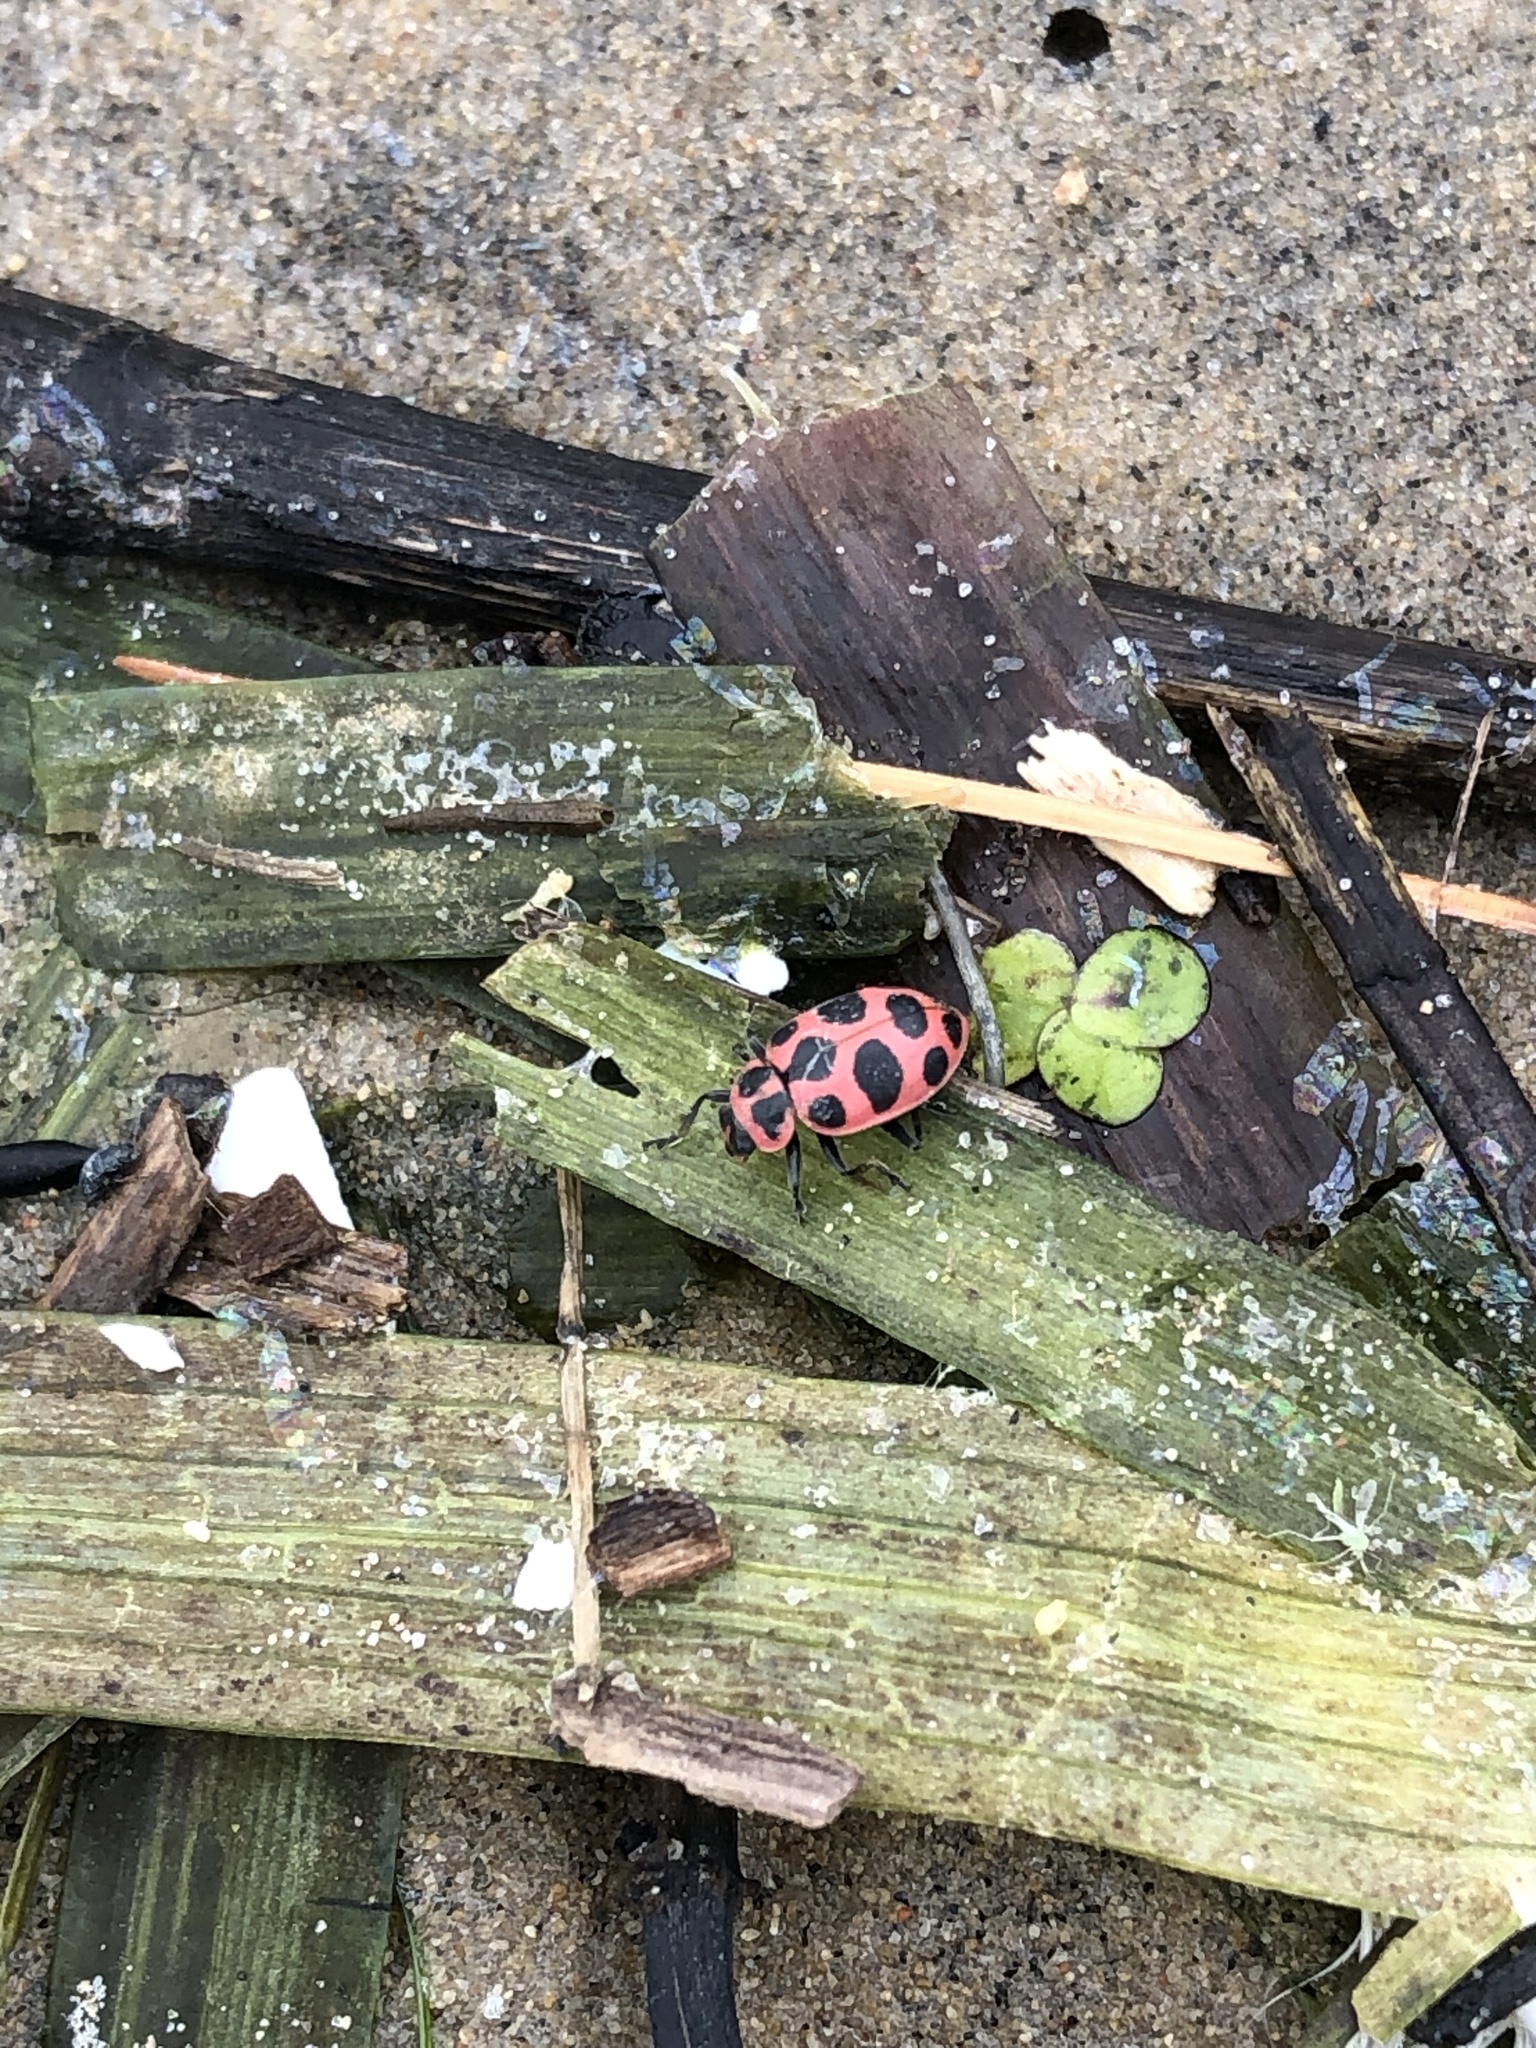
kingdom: Animalia
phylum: Arthropoda
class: Insecta
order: Coleoptera
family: Coccinellidae
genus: Coleomegilla
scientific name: Coleomegilla maculata
